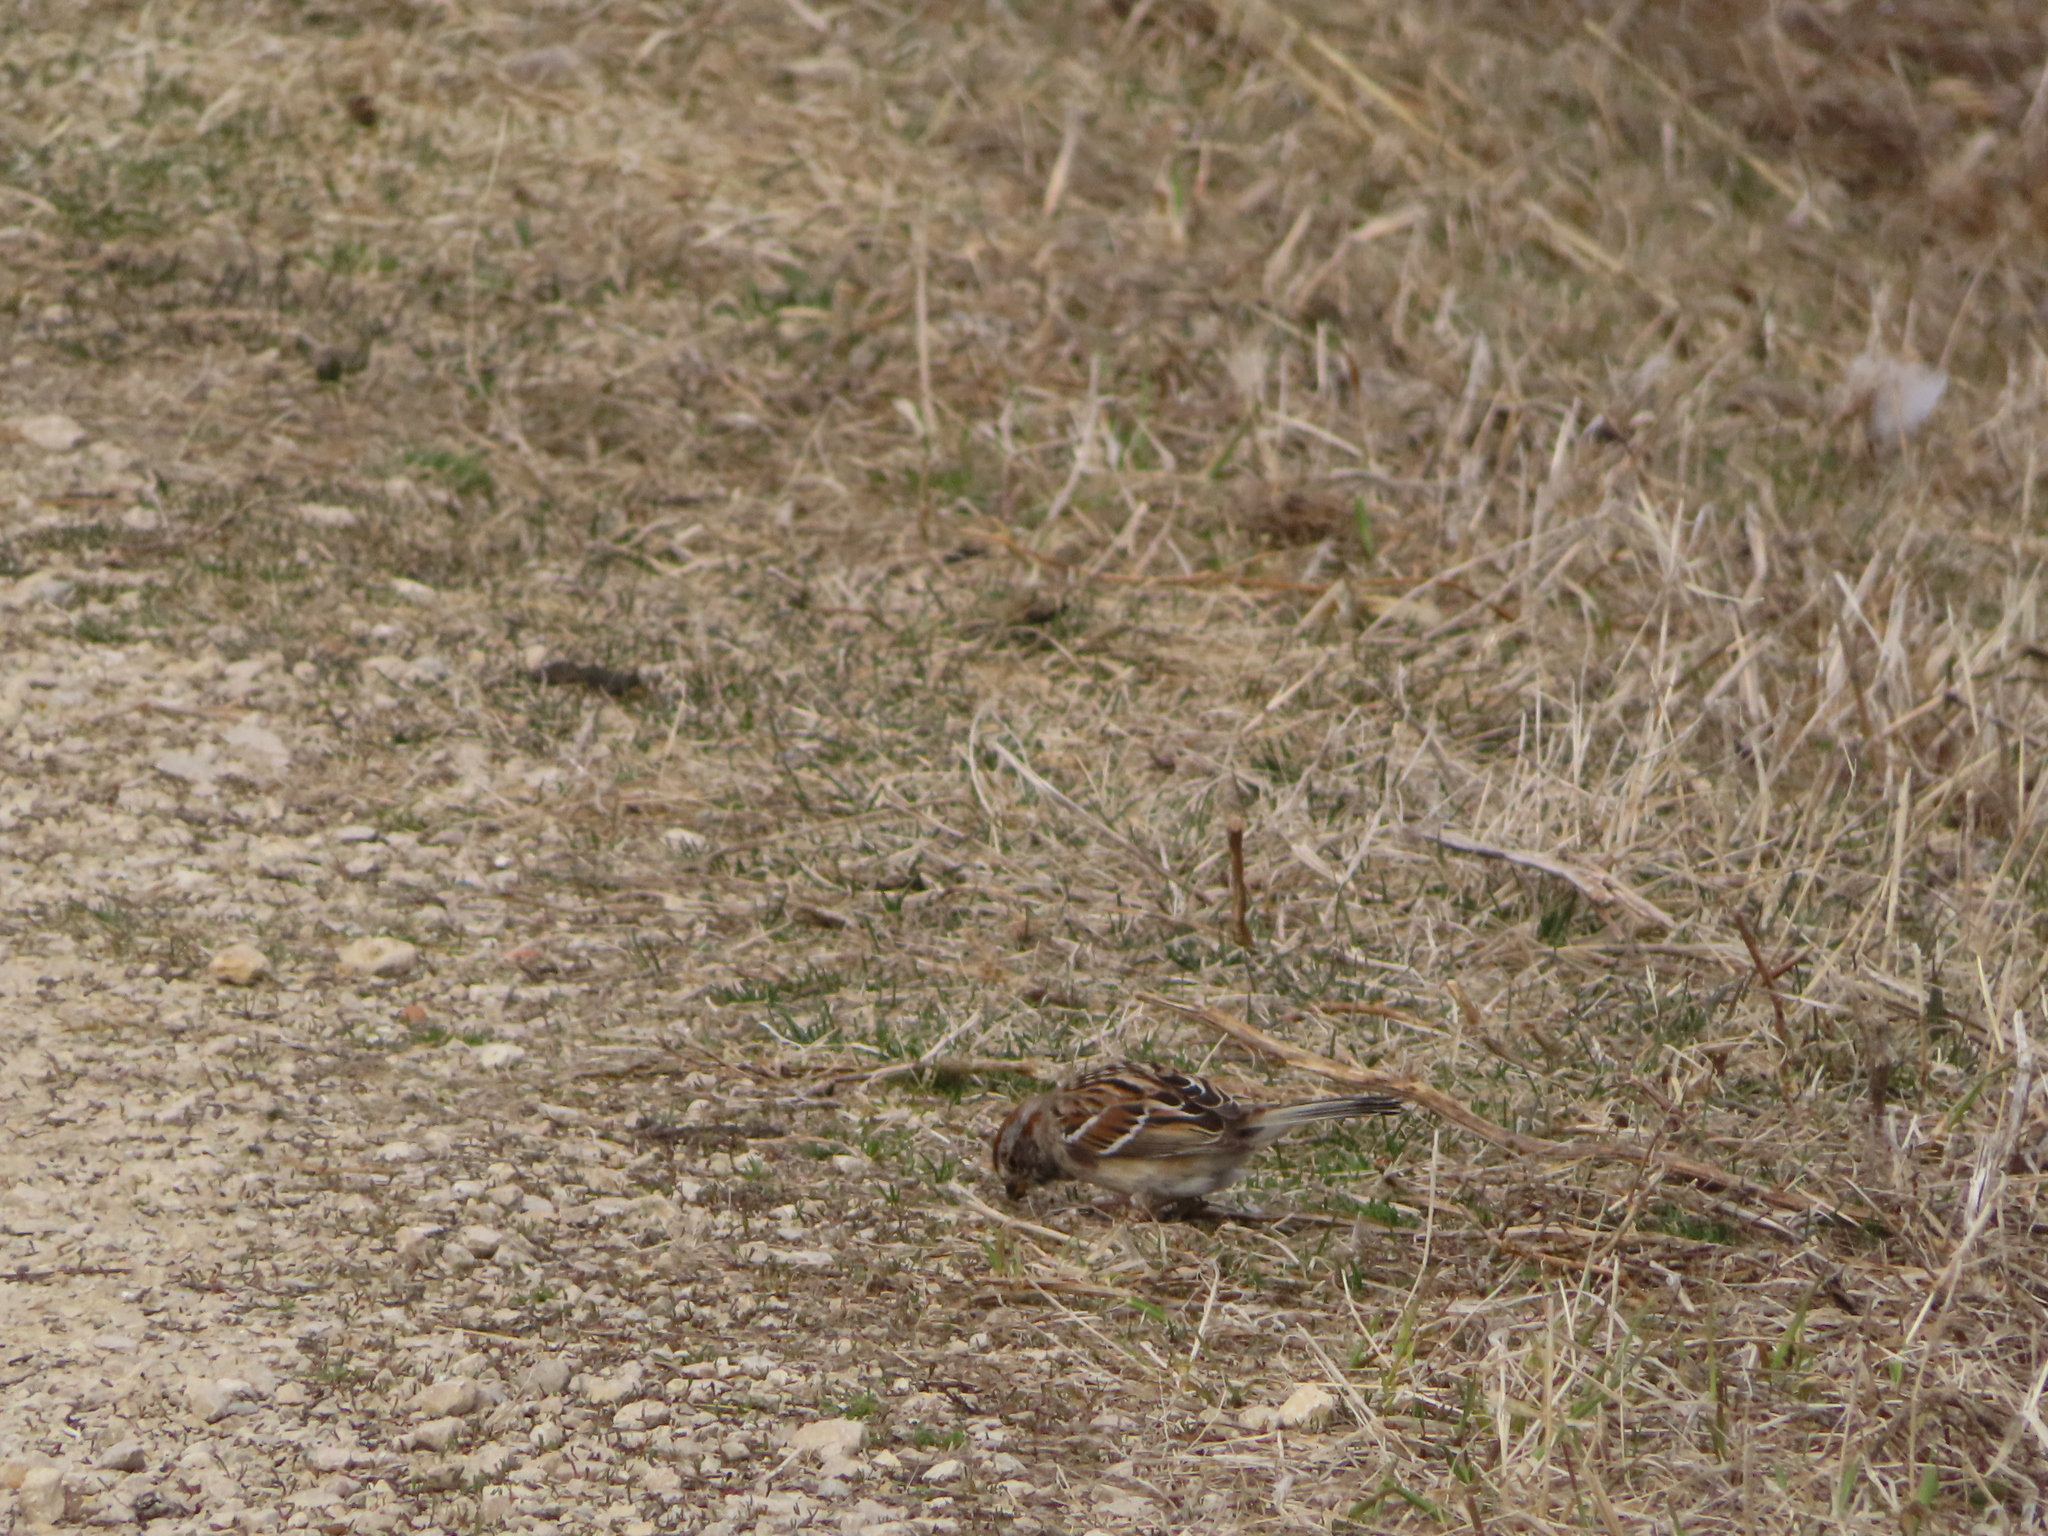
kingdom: Animalia
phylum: Chordata
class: Aves
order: Passeriformes
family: Passerellidae
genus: Spizelloides
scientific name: Spizelloides arborea
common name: American tree sparrow
